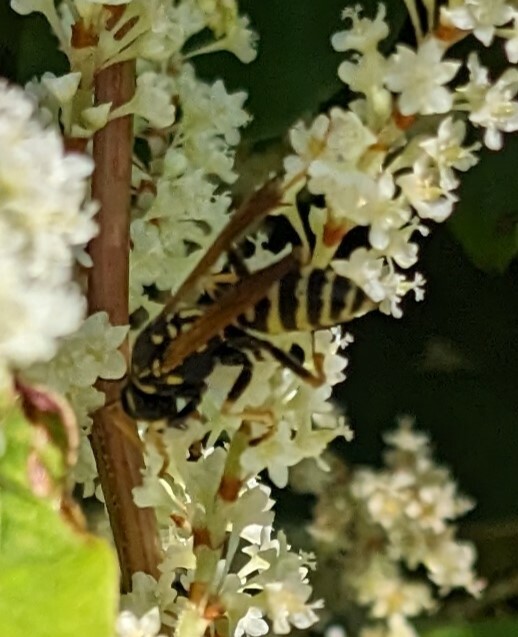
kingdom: Animalia
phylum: Arthropoda
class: Insecta
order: Hymenoptera
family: Eumenidae
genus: Polistes
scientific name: Polistes dominula
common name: Paper wasp
